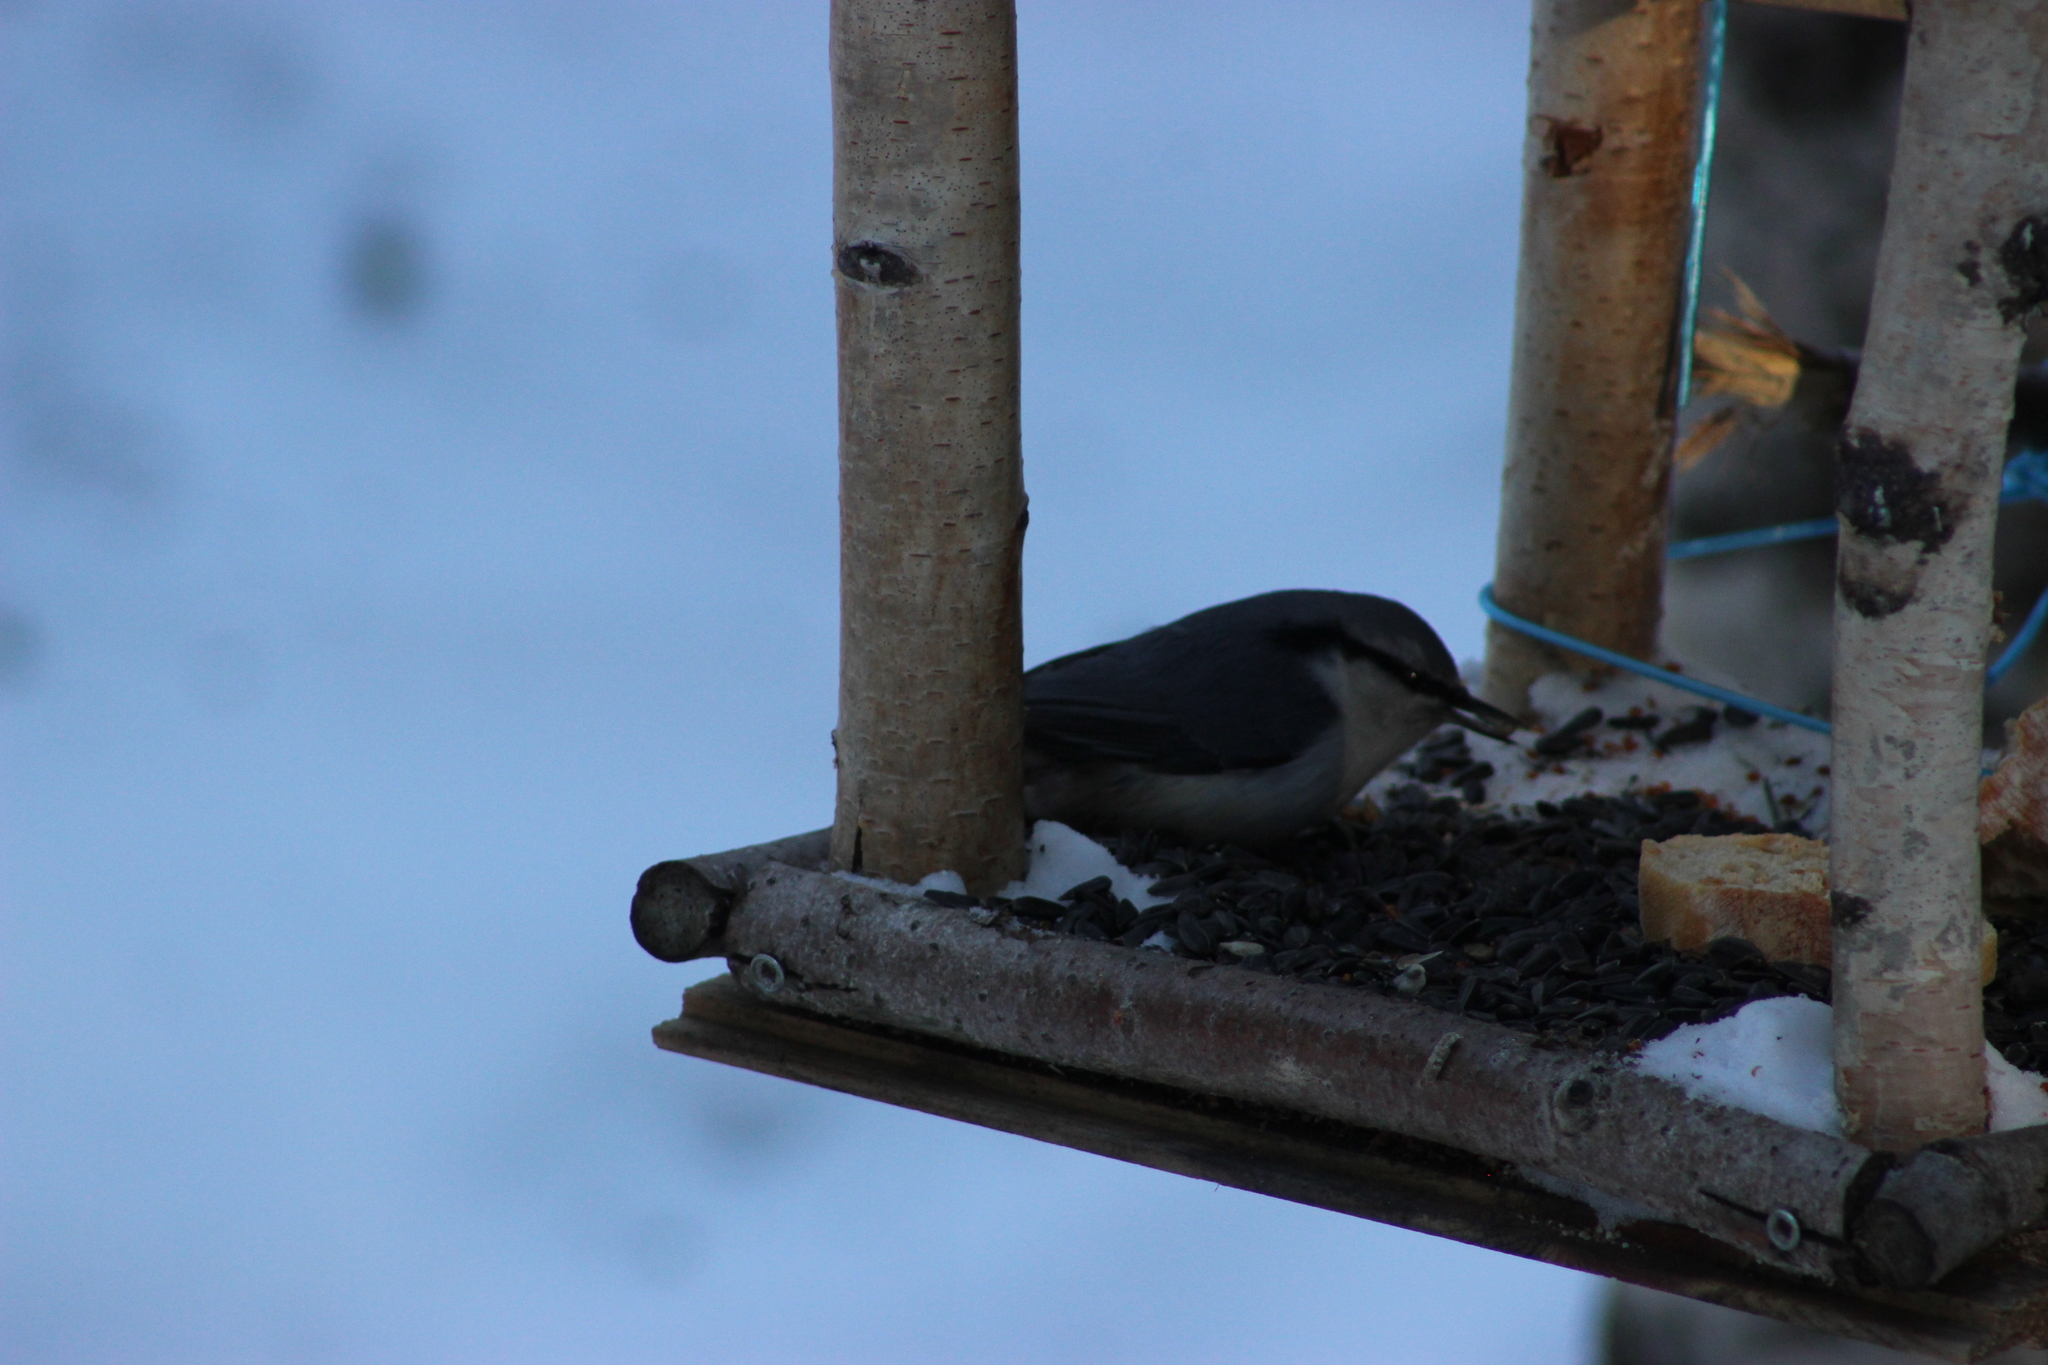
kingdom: Animalia
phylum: Chordata
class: Aves
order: Passeriformes
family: Sittidae
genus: Sitta
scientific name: Sitta europaea
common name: Eurasian nuthatch
